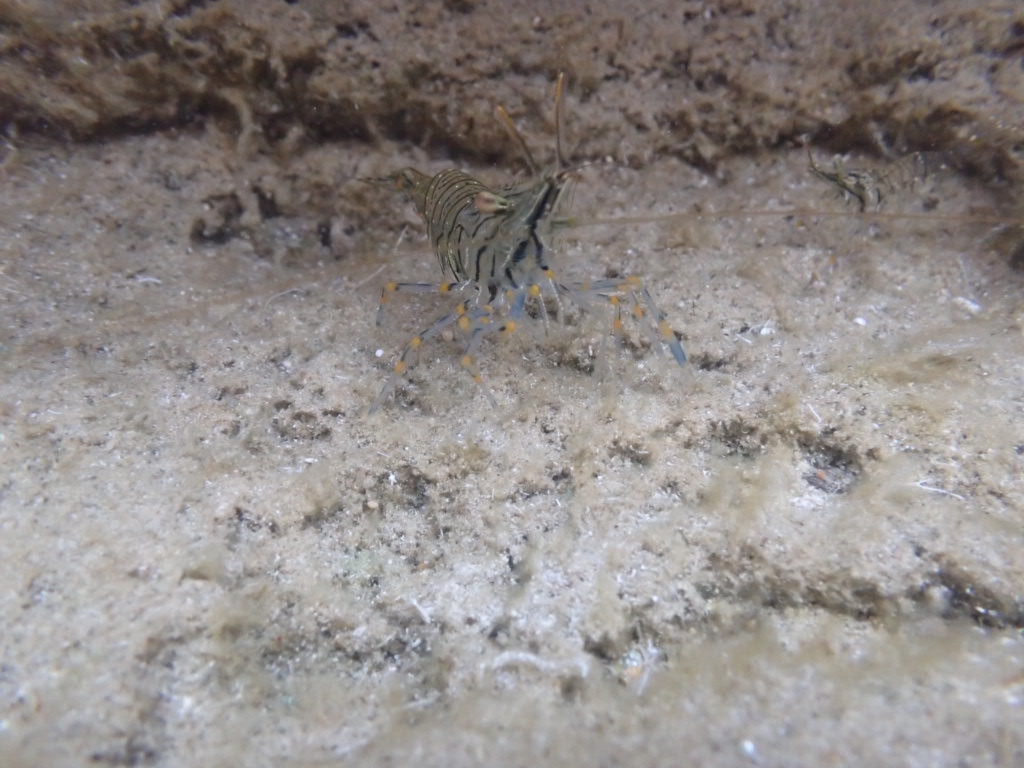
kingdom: Animalia
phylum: Arthropoda
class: Malacostraca
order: Decapoda
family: Palaemonidae
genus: Palaemon
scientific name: Palaemon elegans
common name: Grass prawm
